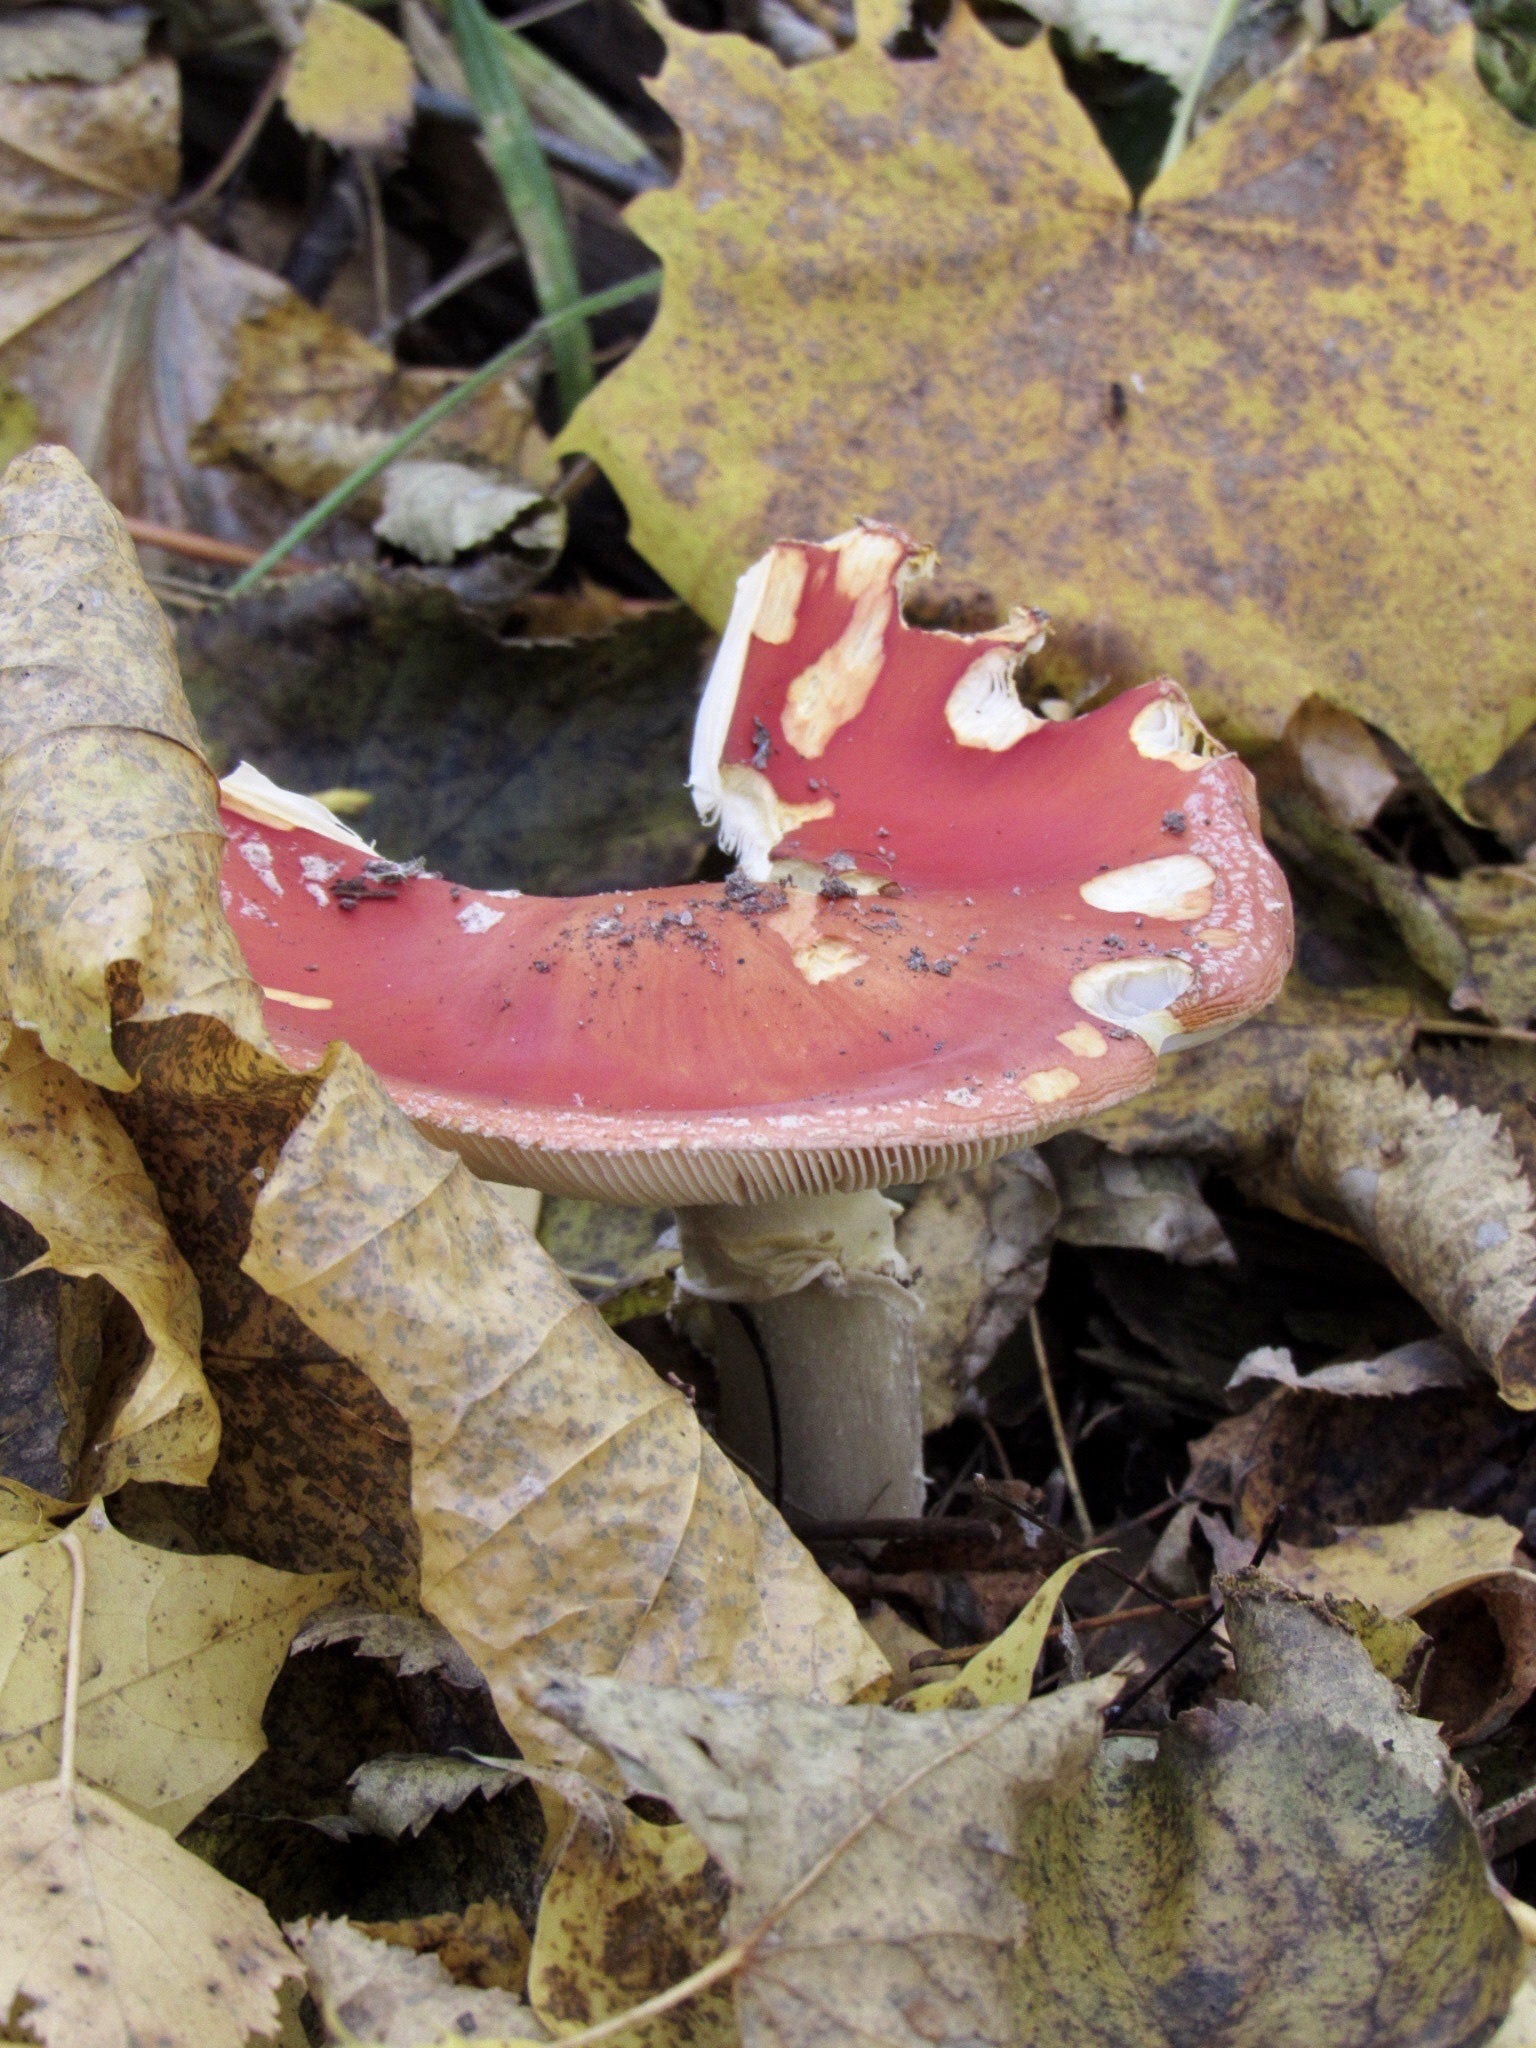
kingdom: Fungi
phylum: Basidiomycota
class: Agaricomycetes
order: Agaricales
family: Amanitaceae
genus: Amanita
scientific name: Amanita muscaria
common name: Fly agaric
